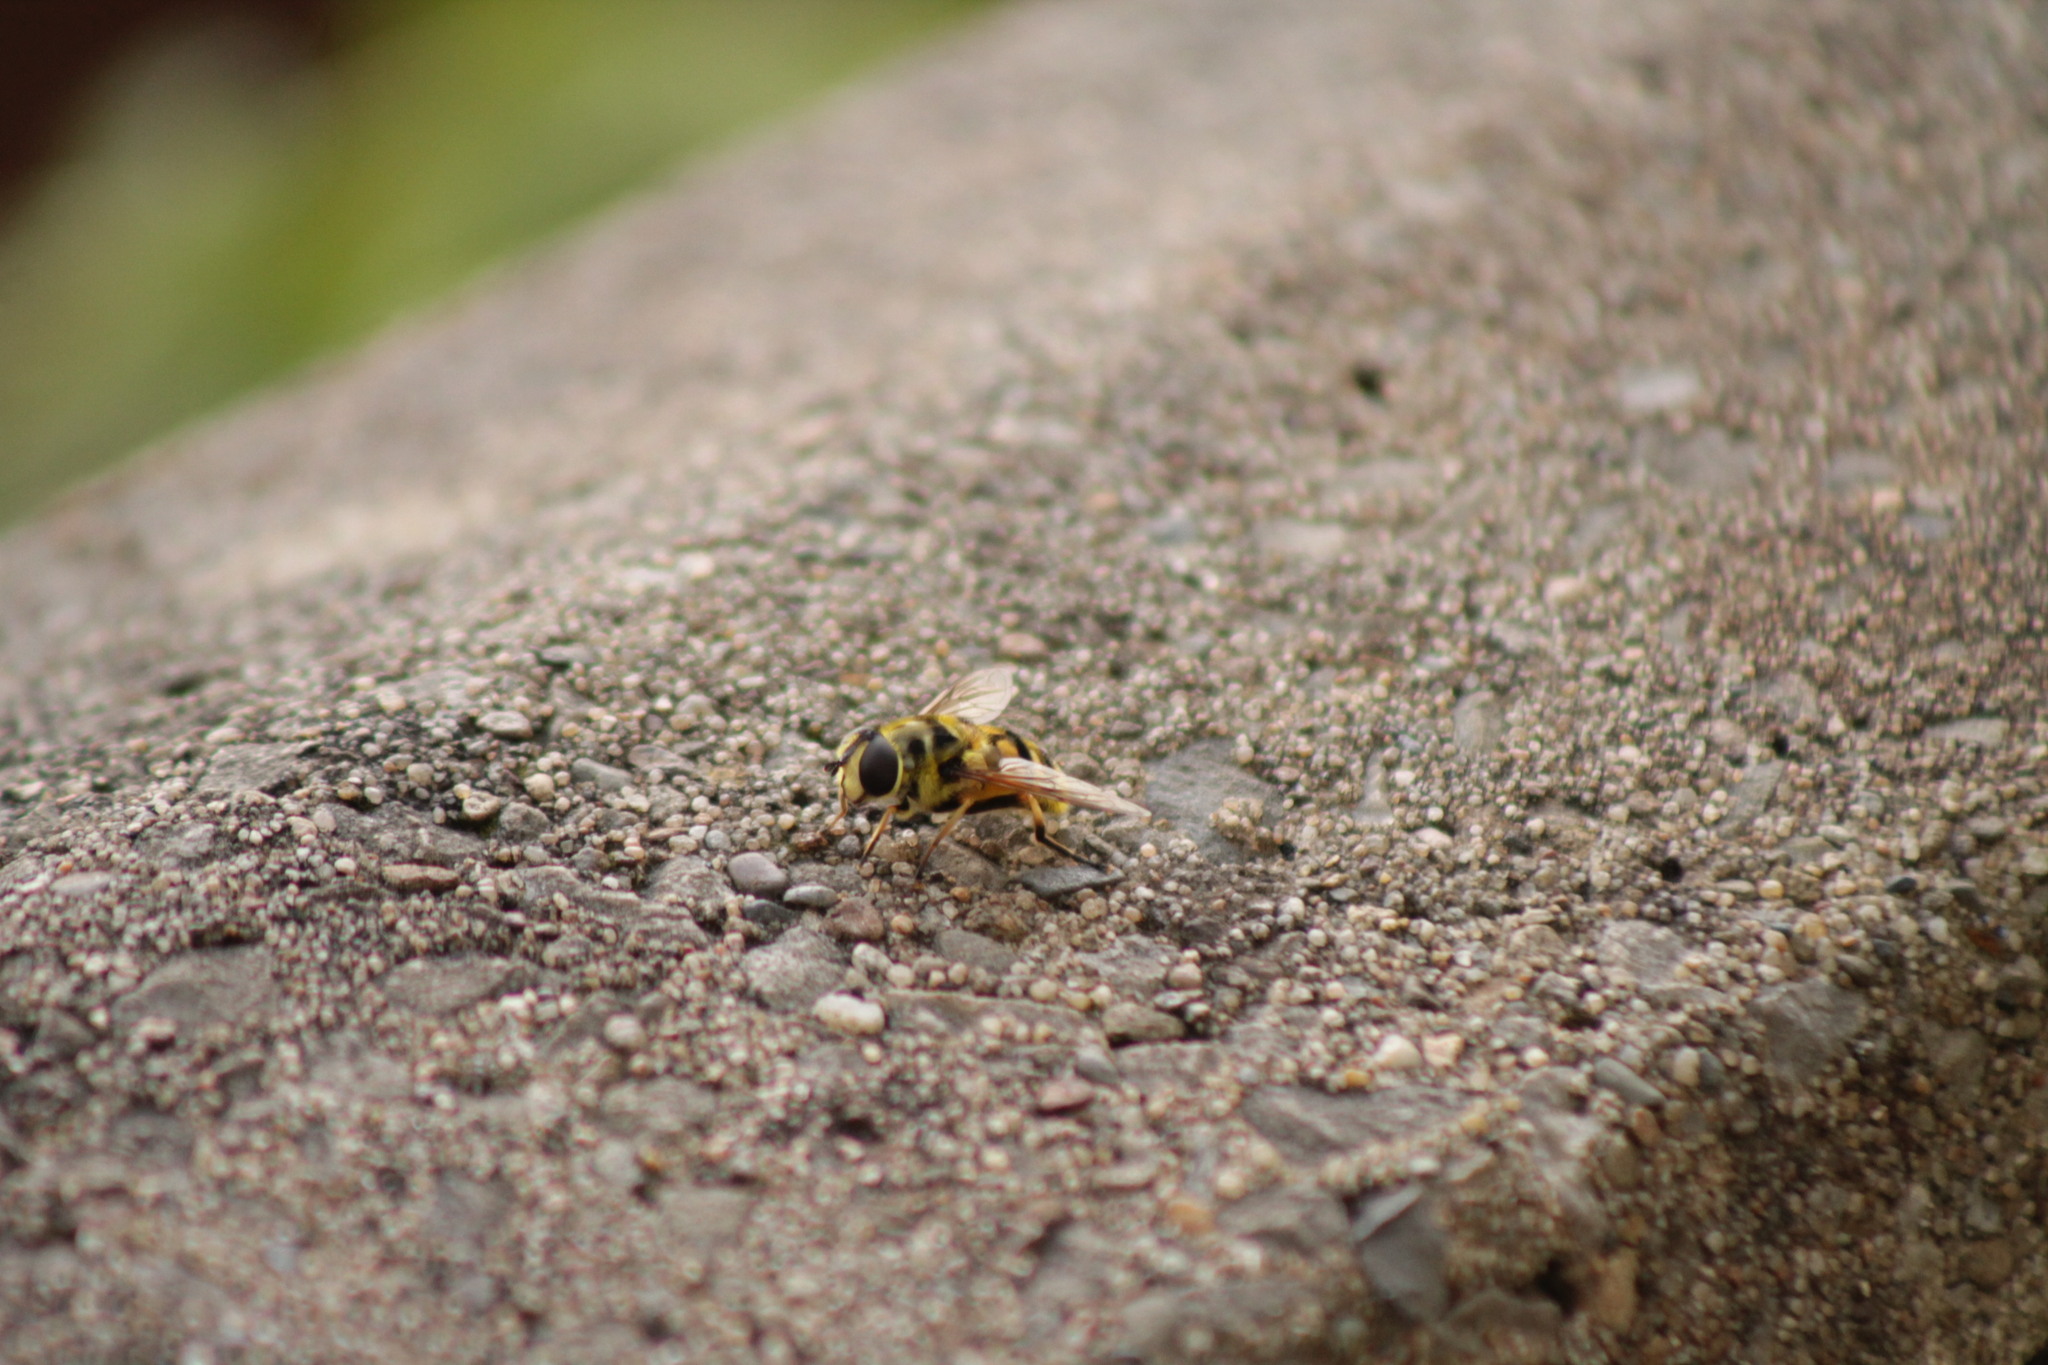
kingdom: Animalia
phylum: Arthropoda
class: Insecta
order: Diptera
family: Syrphidae
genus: Myathropa
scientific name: Myathropa florea
